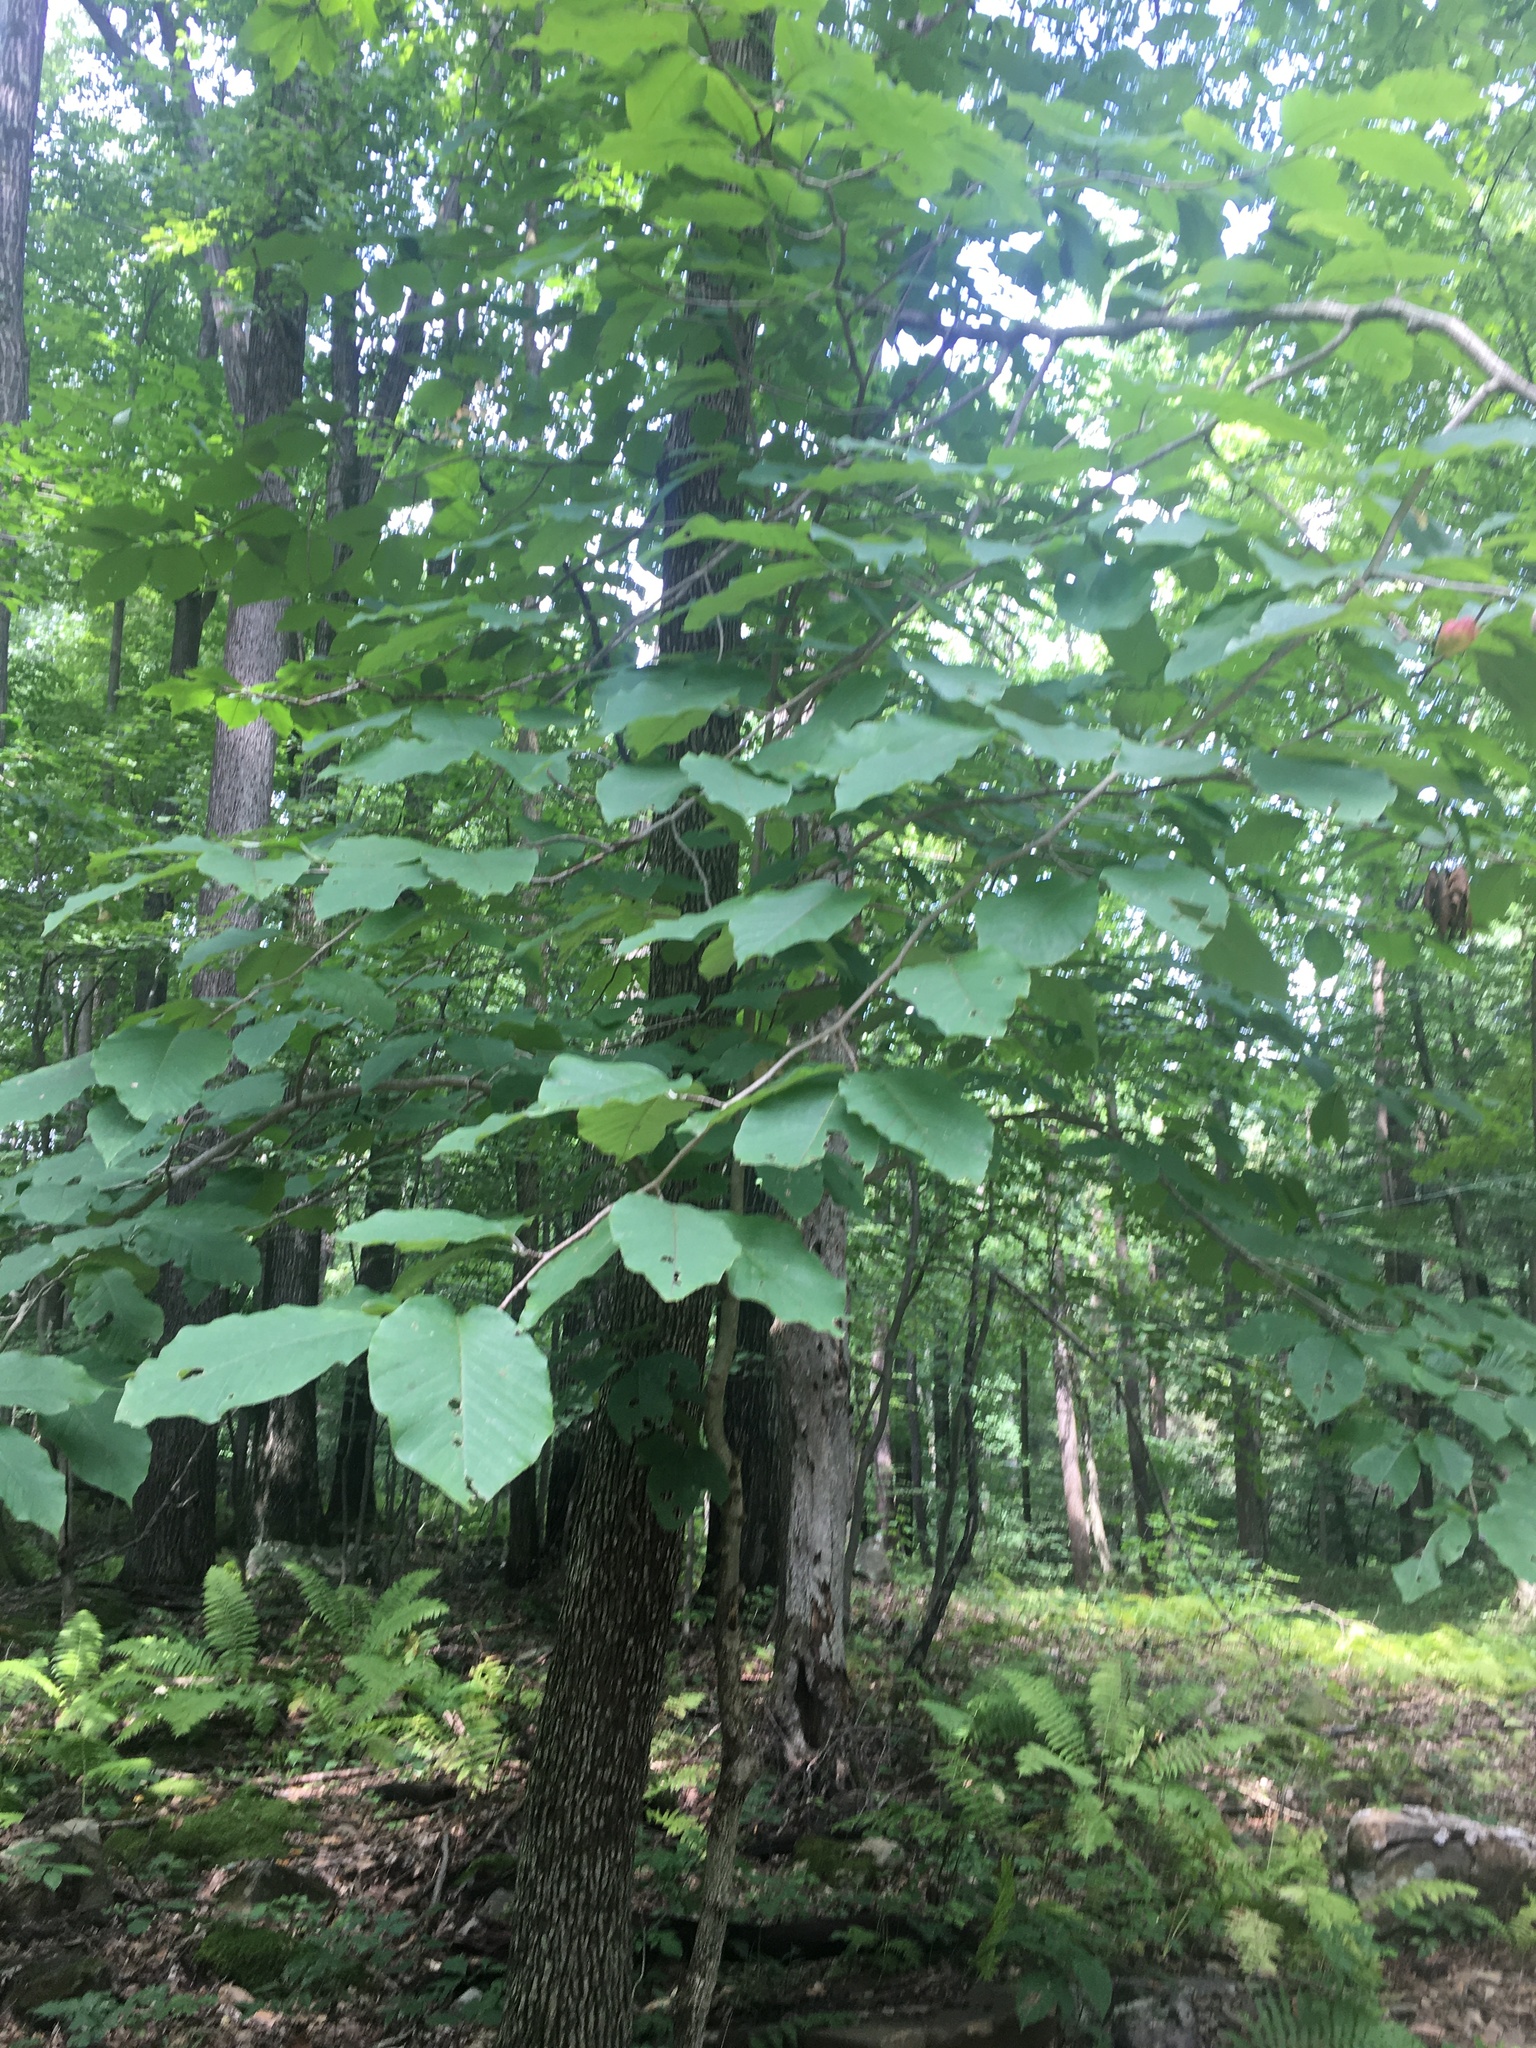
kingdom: Plantae
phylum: Tracheophyta
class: Magnoliopsida
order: Magnoliales
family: Magnoliaceae
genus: Magnolia
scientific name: Magnolia acuminata
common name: Cucumber magnolia
